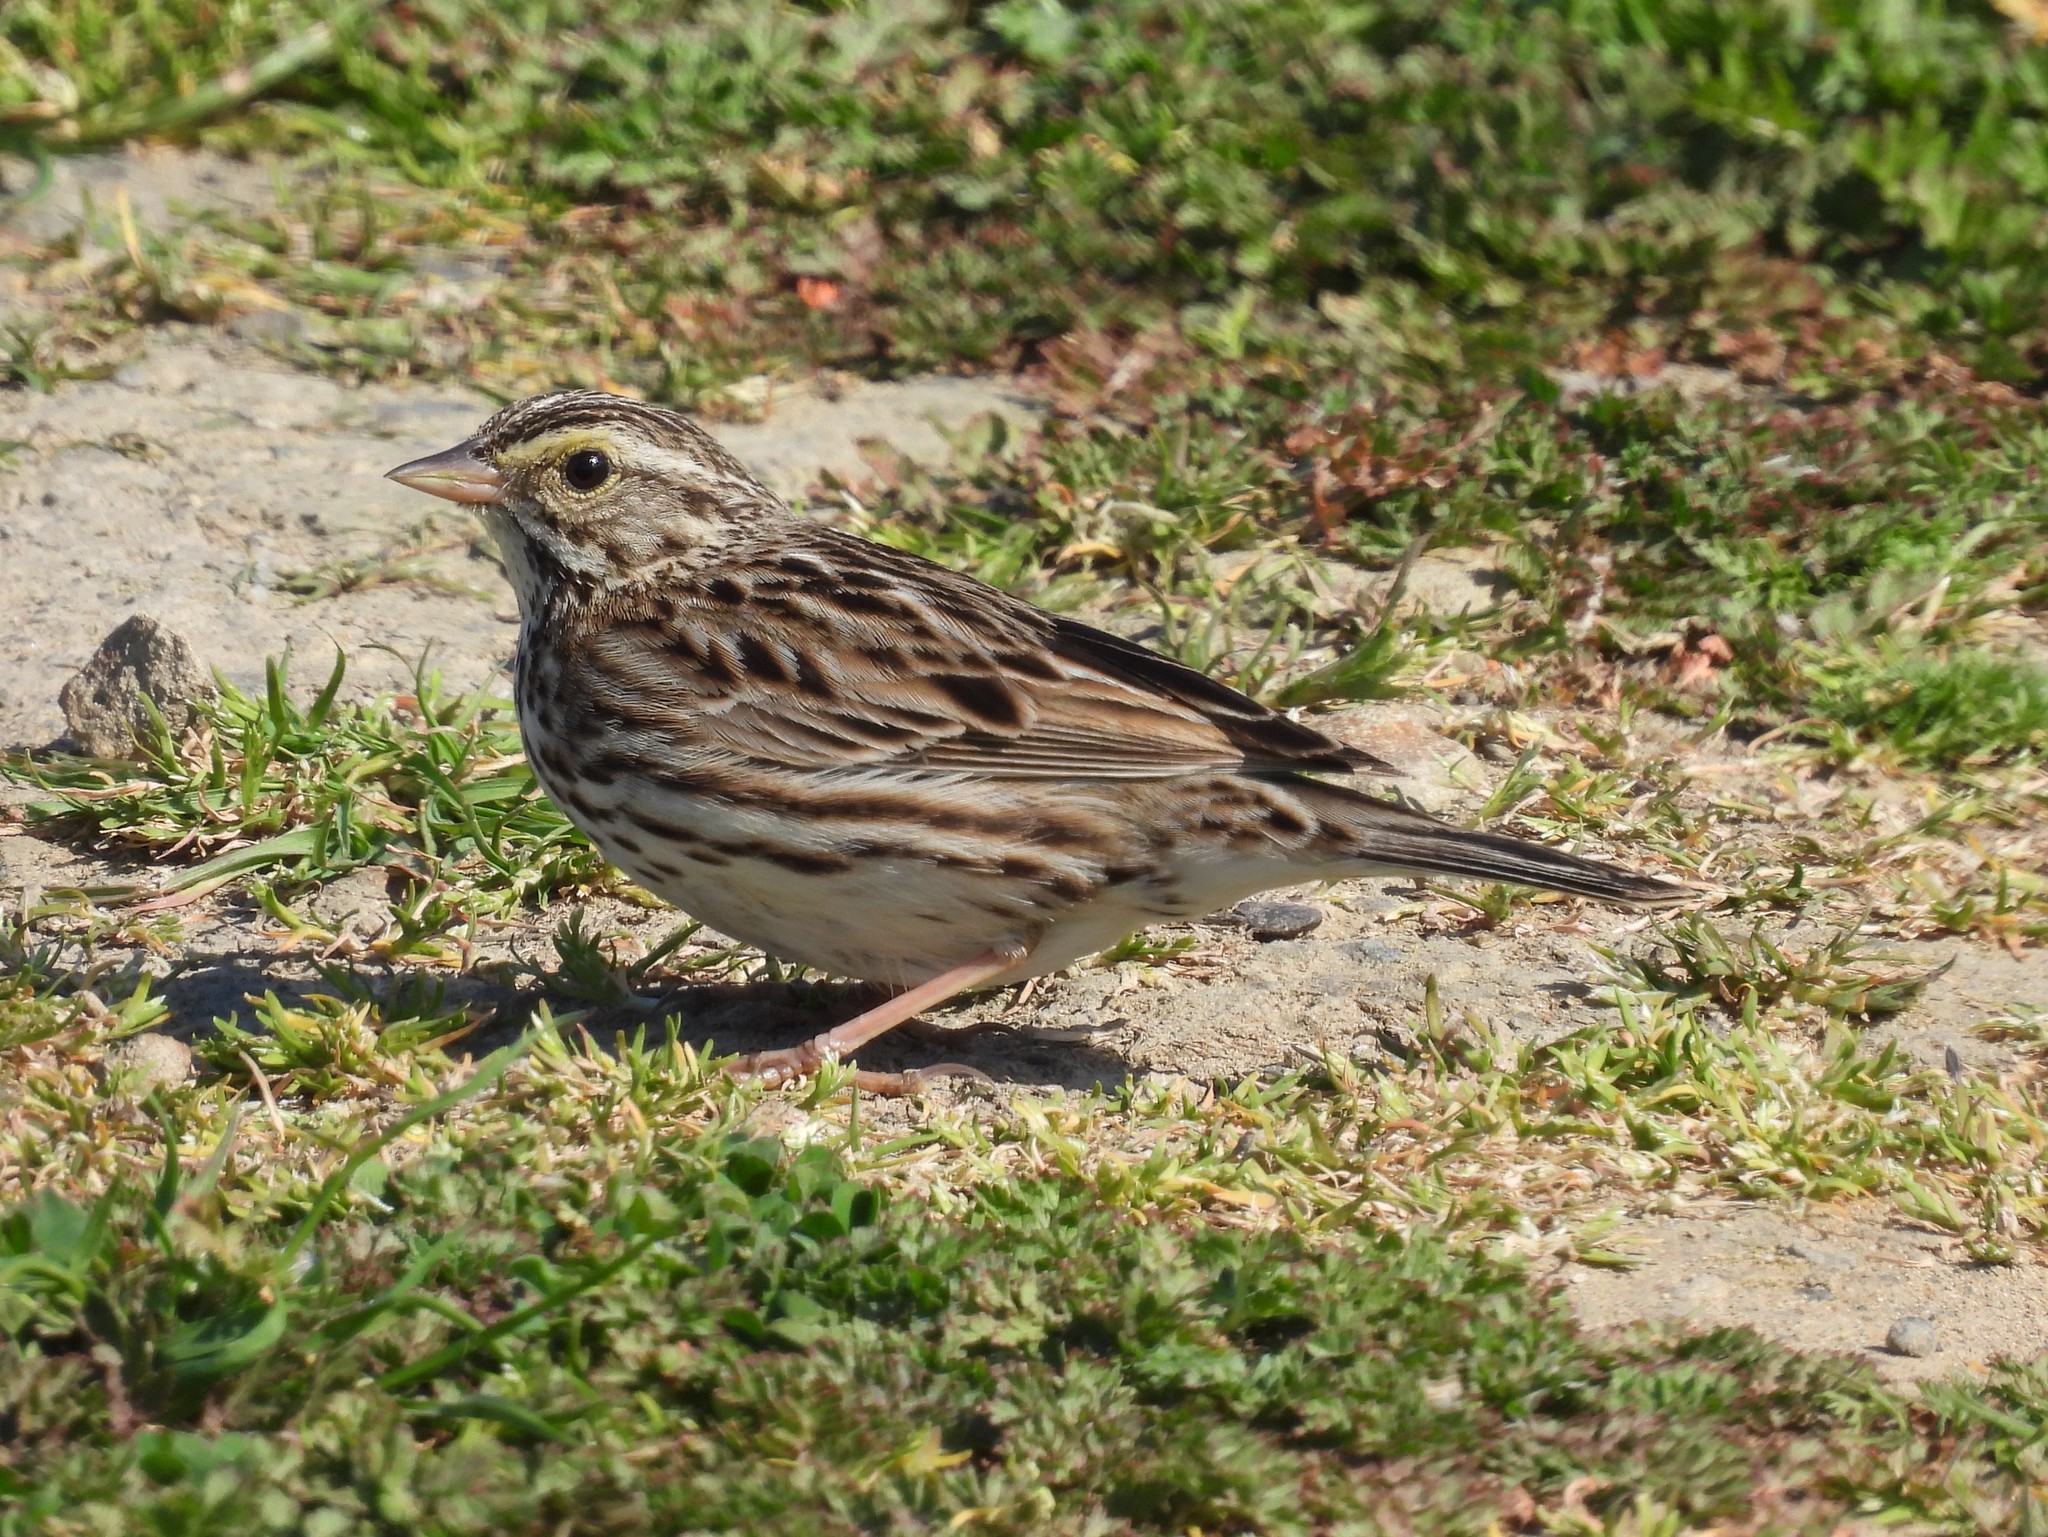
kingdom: Animalia
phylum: Chordata
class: Aves
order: Passeriformes
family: Passerellidae
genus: Passerculus
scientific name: Passerculus sandwichensis
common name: Savannah sparrow
